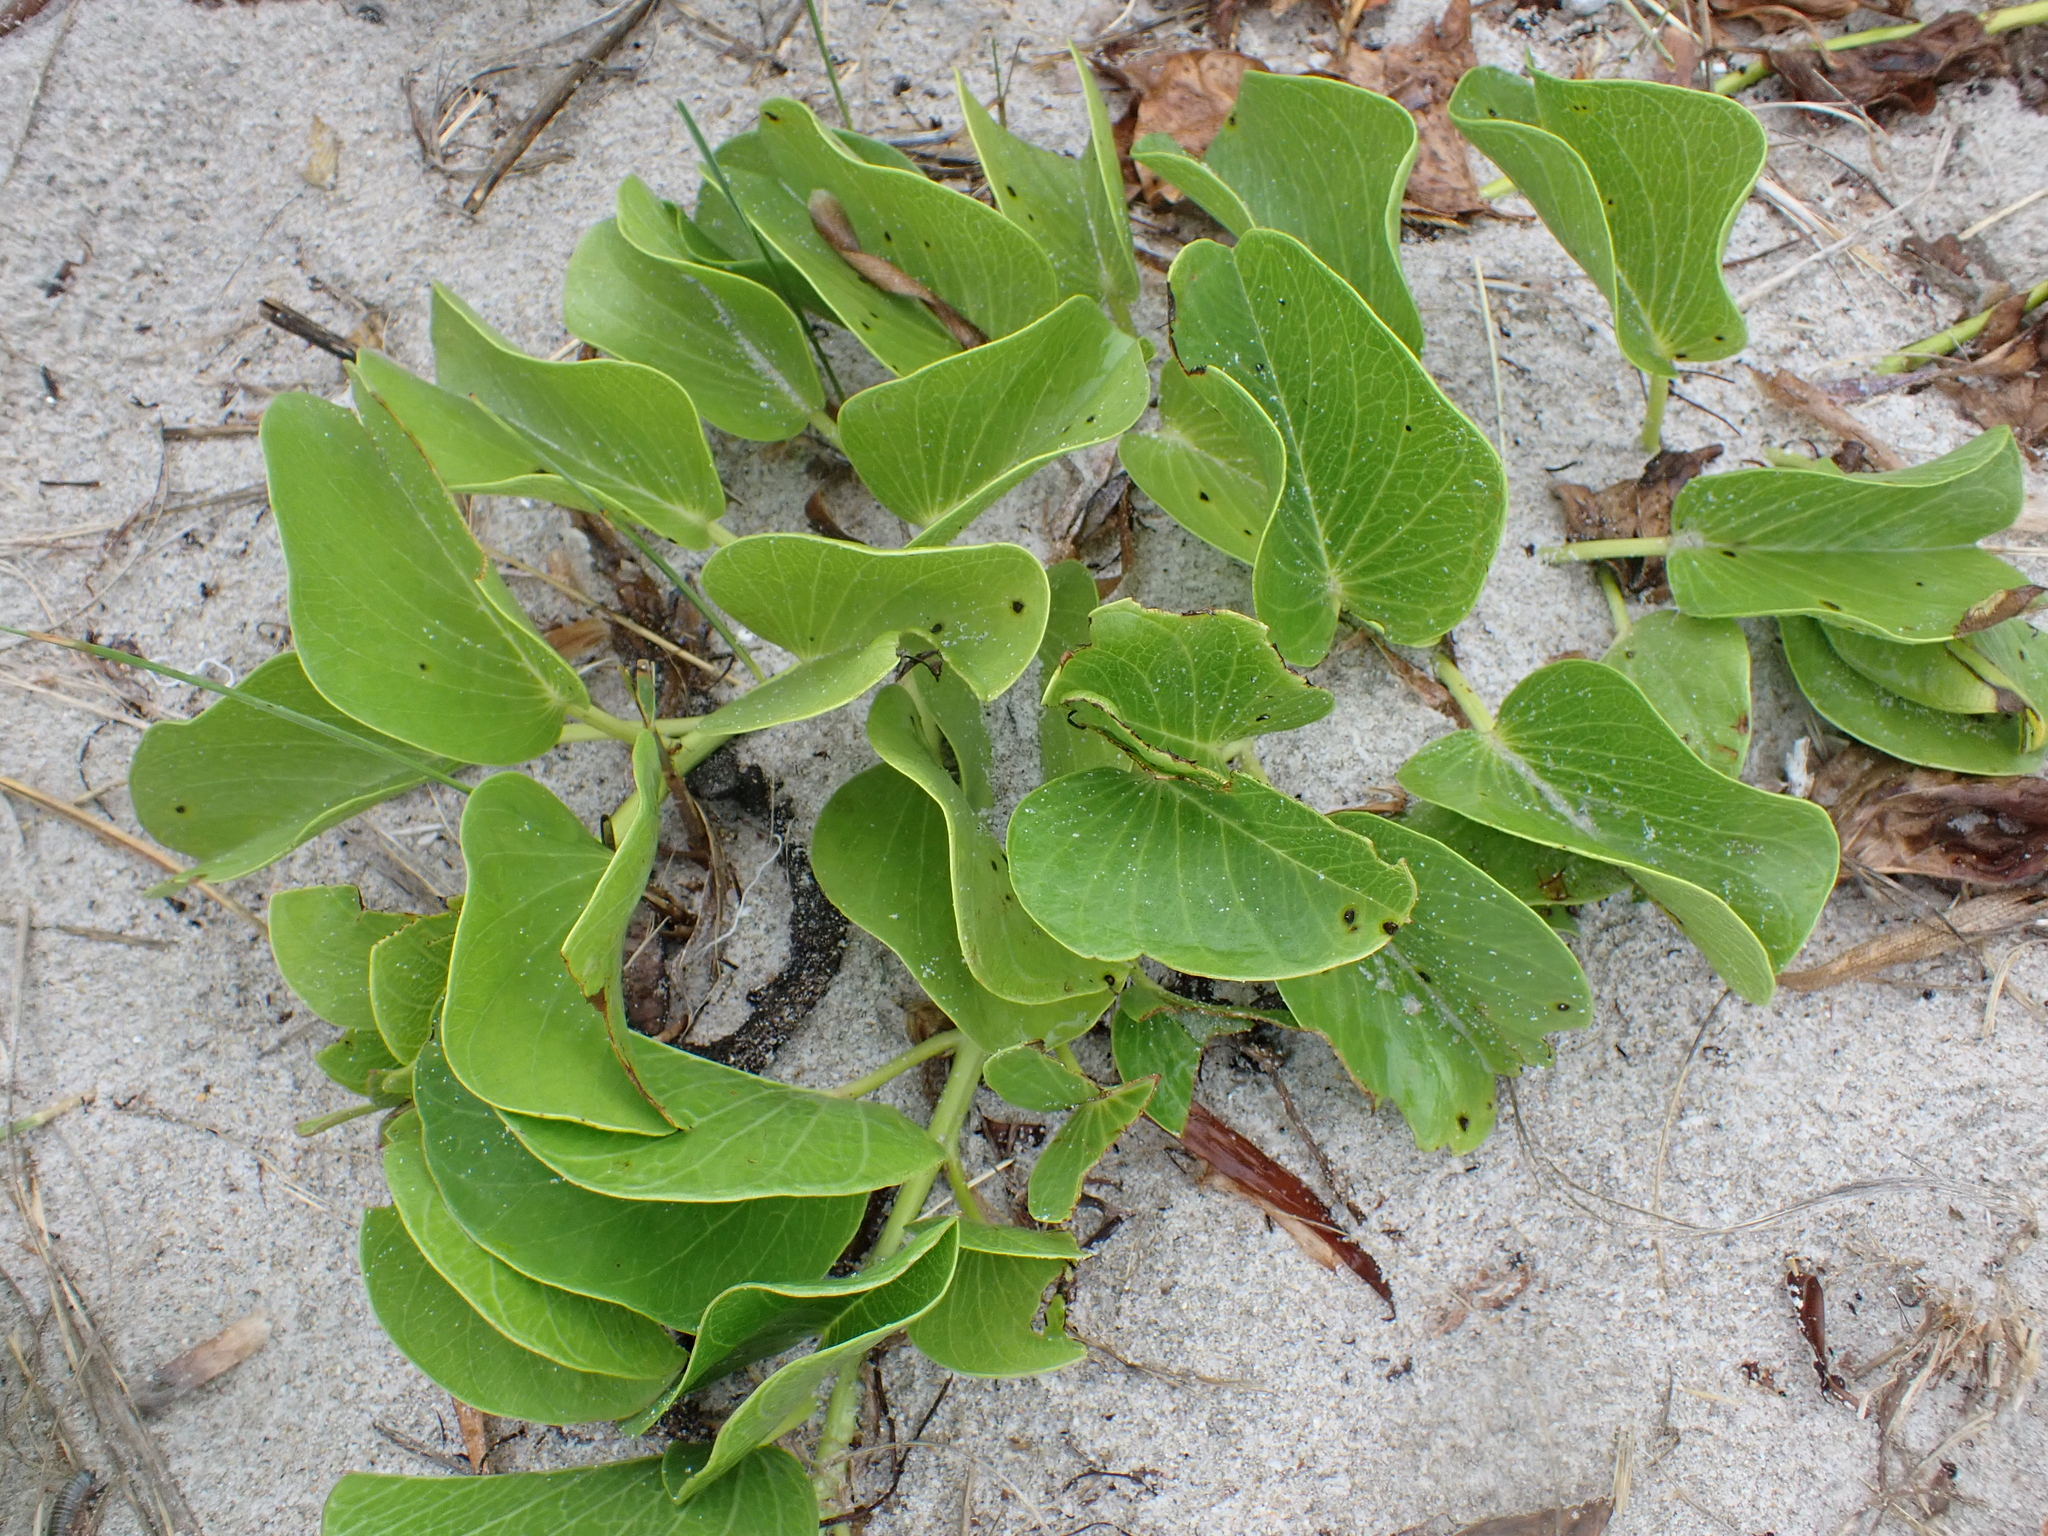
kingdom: Plantae
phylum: Tracheophyta
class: Magnoliopsida
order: Solanales
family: Convolvulaceae
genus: Ipomoea
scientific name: Ipomoea pes-caprae
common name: Beach morning glory
